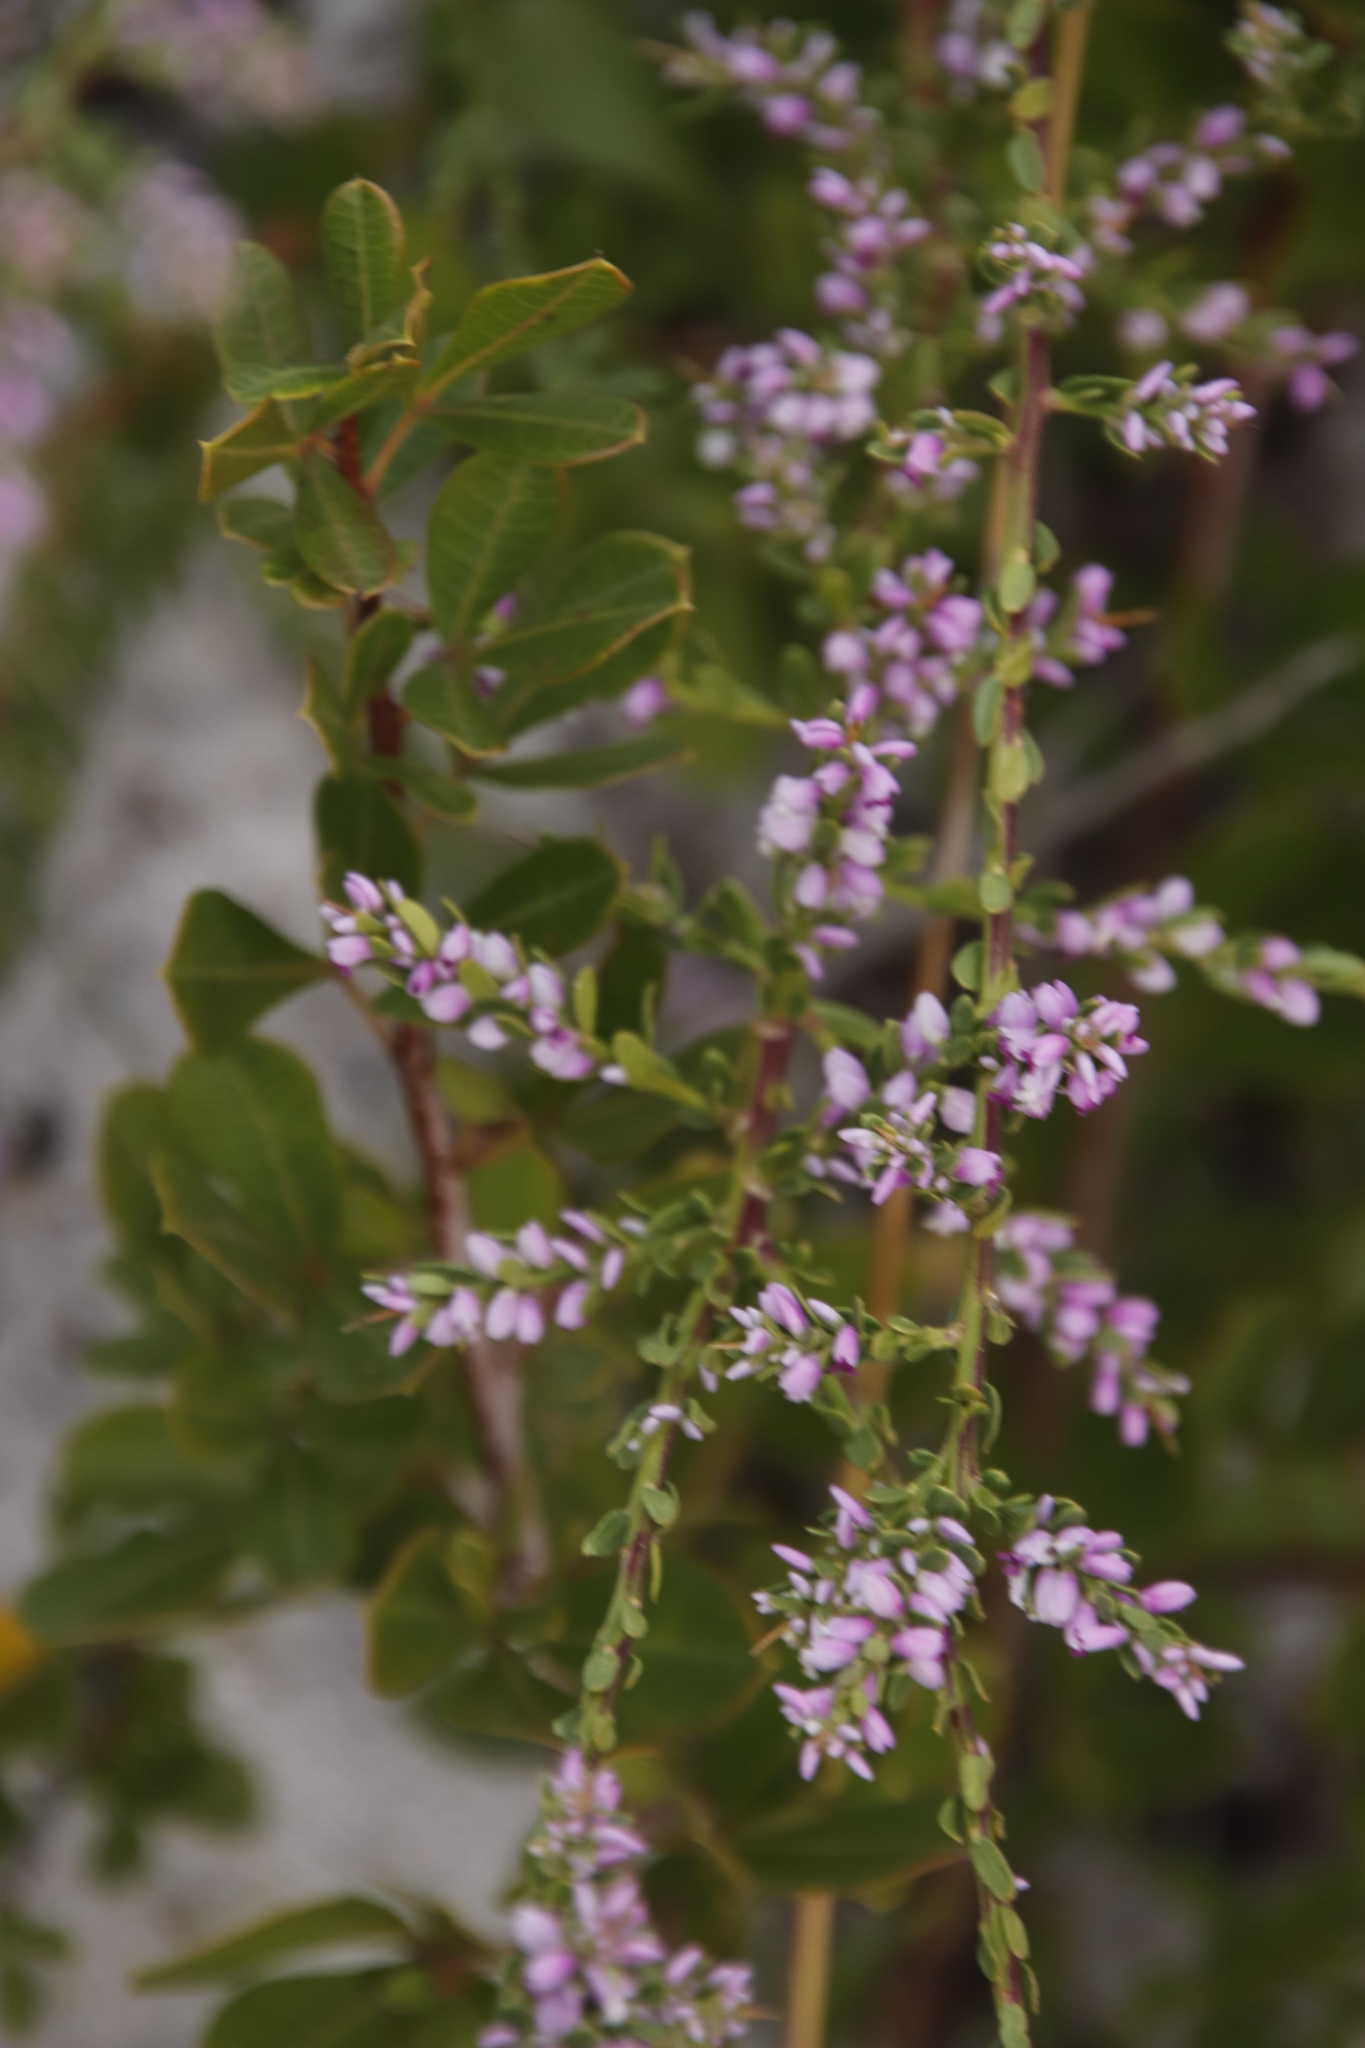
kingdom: Plantae
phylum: Tracheophyta
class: Magnoliopsida
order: Fabales
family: Polygalaceae
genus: Muraltia
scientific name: Muraltia spinosa
